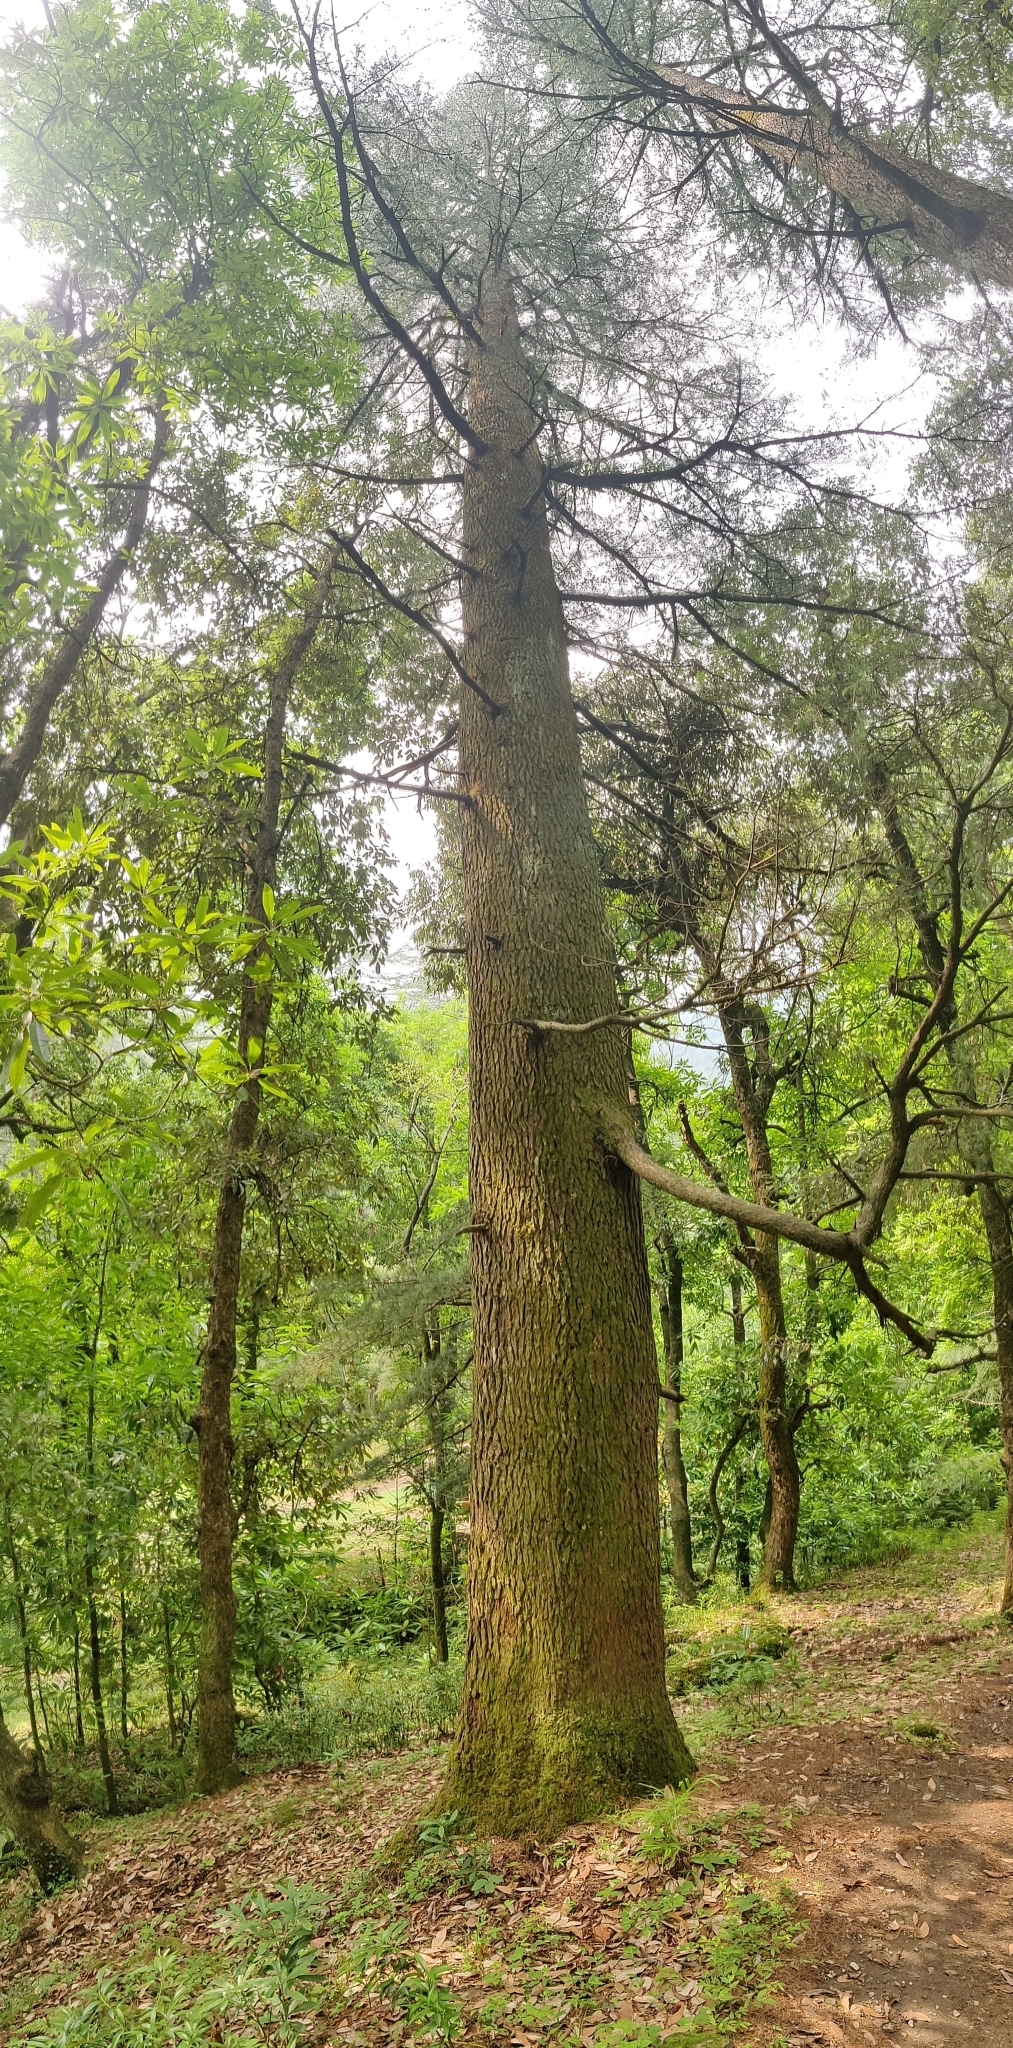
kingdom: Plantae
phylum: Tracheophyta
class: Pinopsida
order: Pinales
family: Pinaceae
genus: Cedrus
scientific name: Cedrus deodara
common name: Deodar
